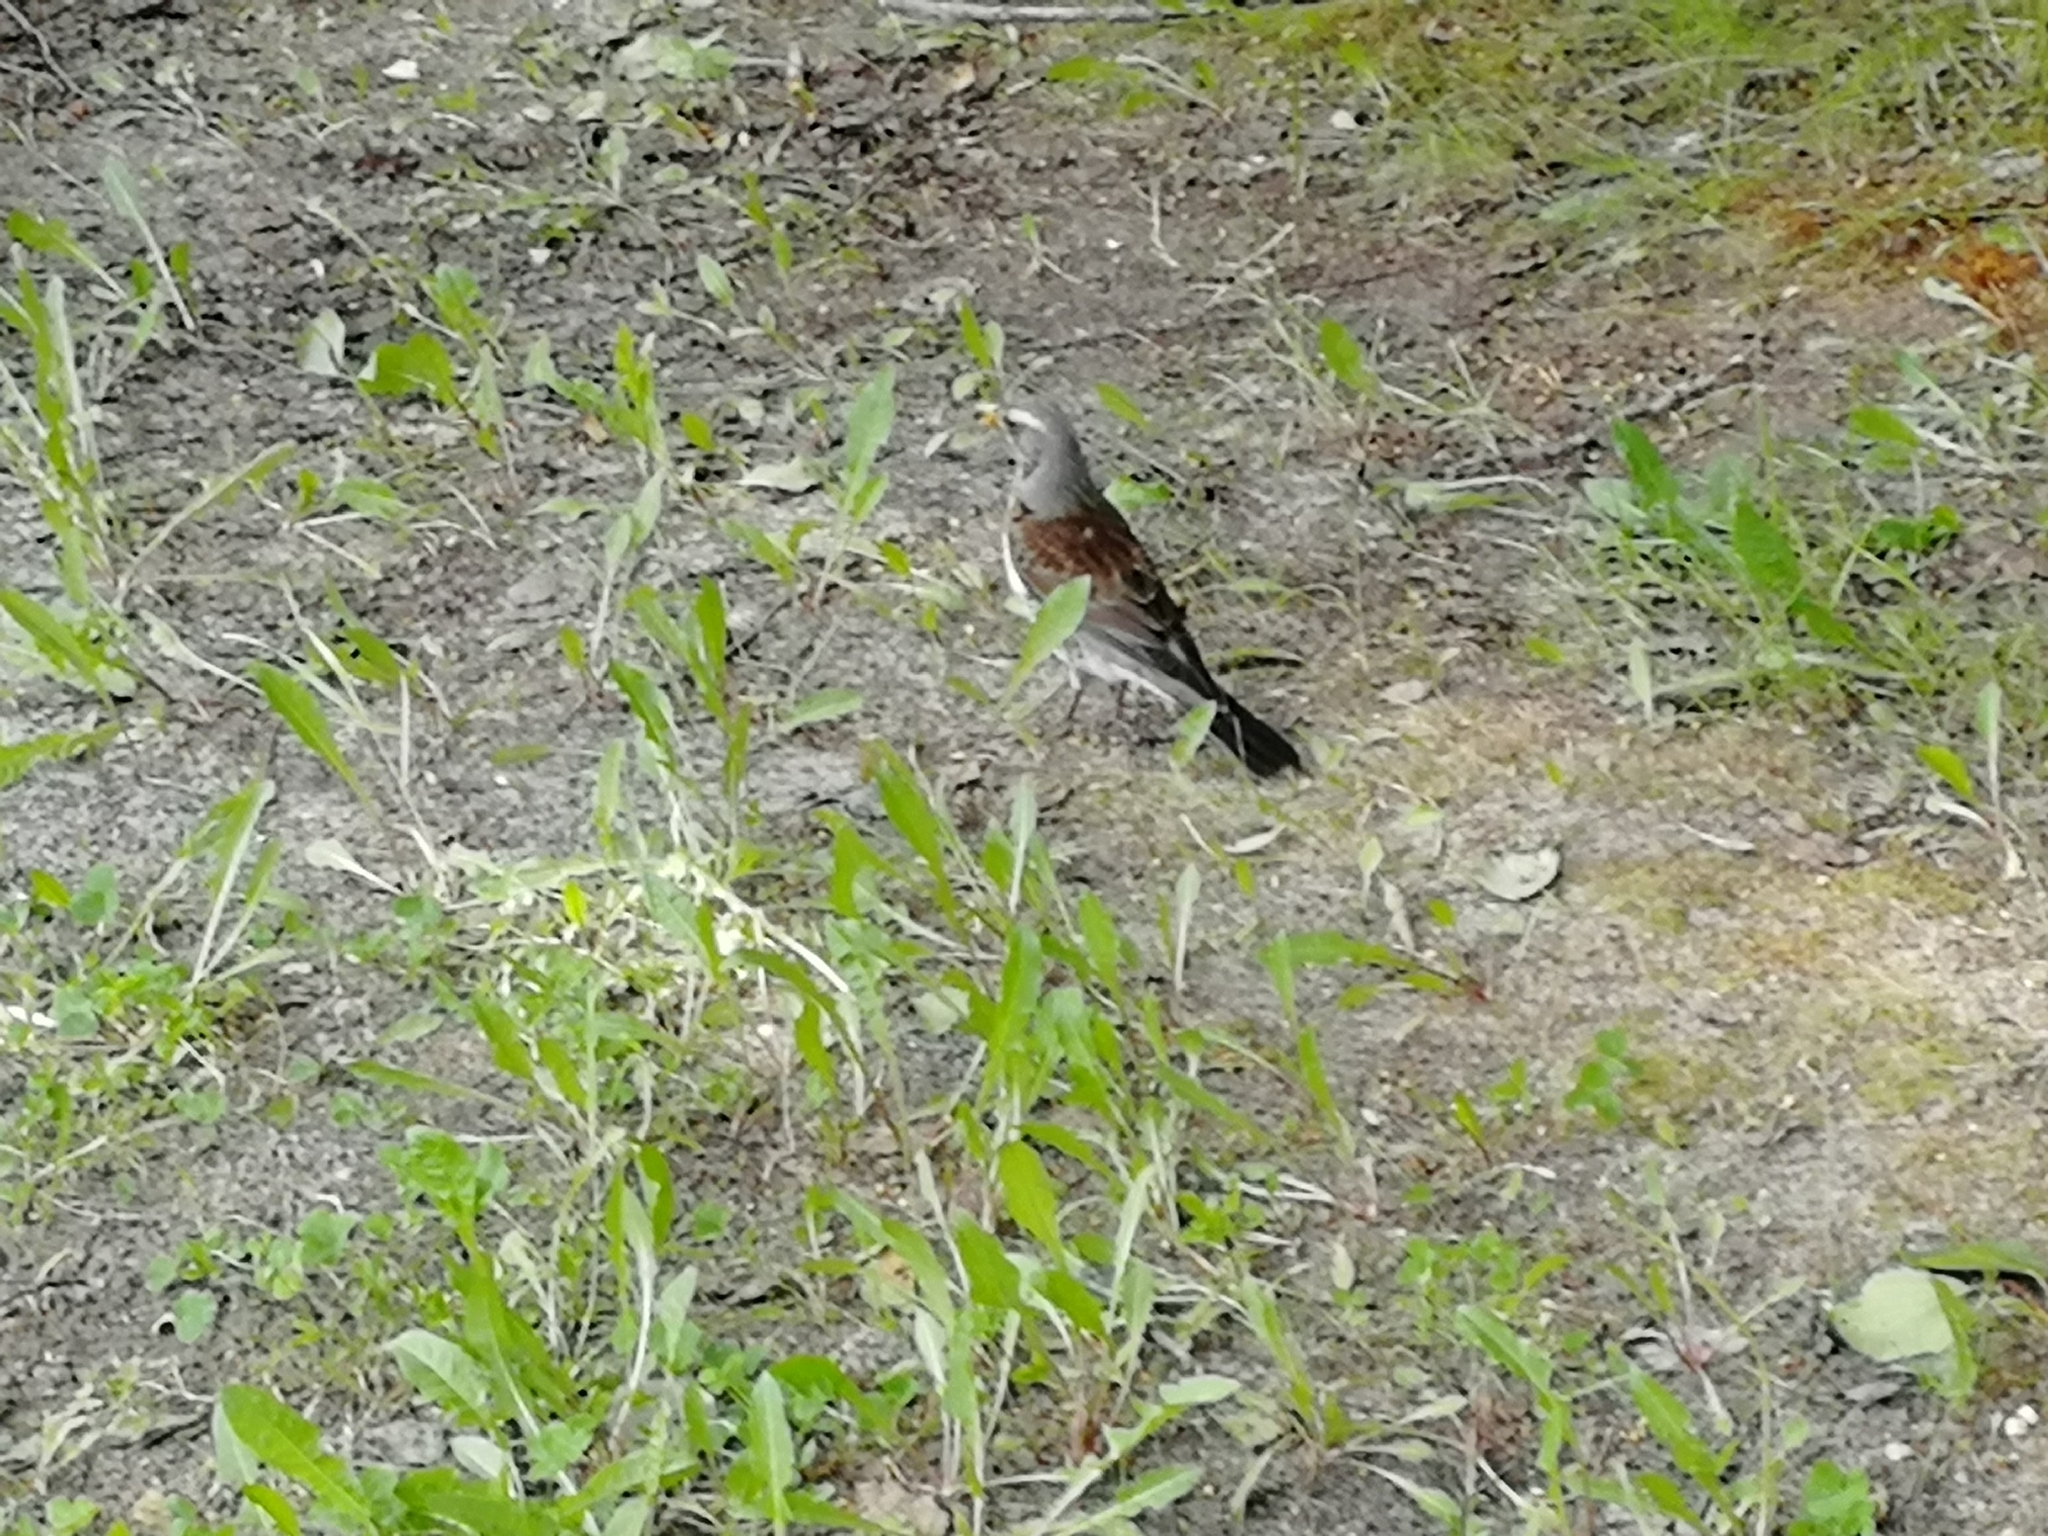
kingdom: Animalia
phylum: Chordata
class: Aves
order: Passeriformes
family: Turdidae
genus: Turdus
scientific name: Turdus pilaris
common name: Fieldfare
